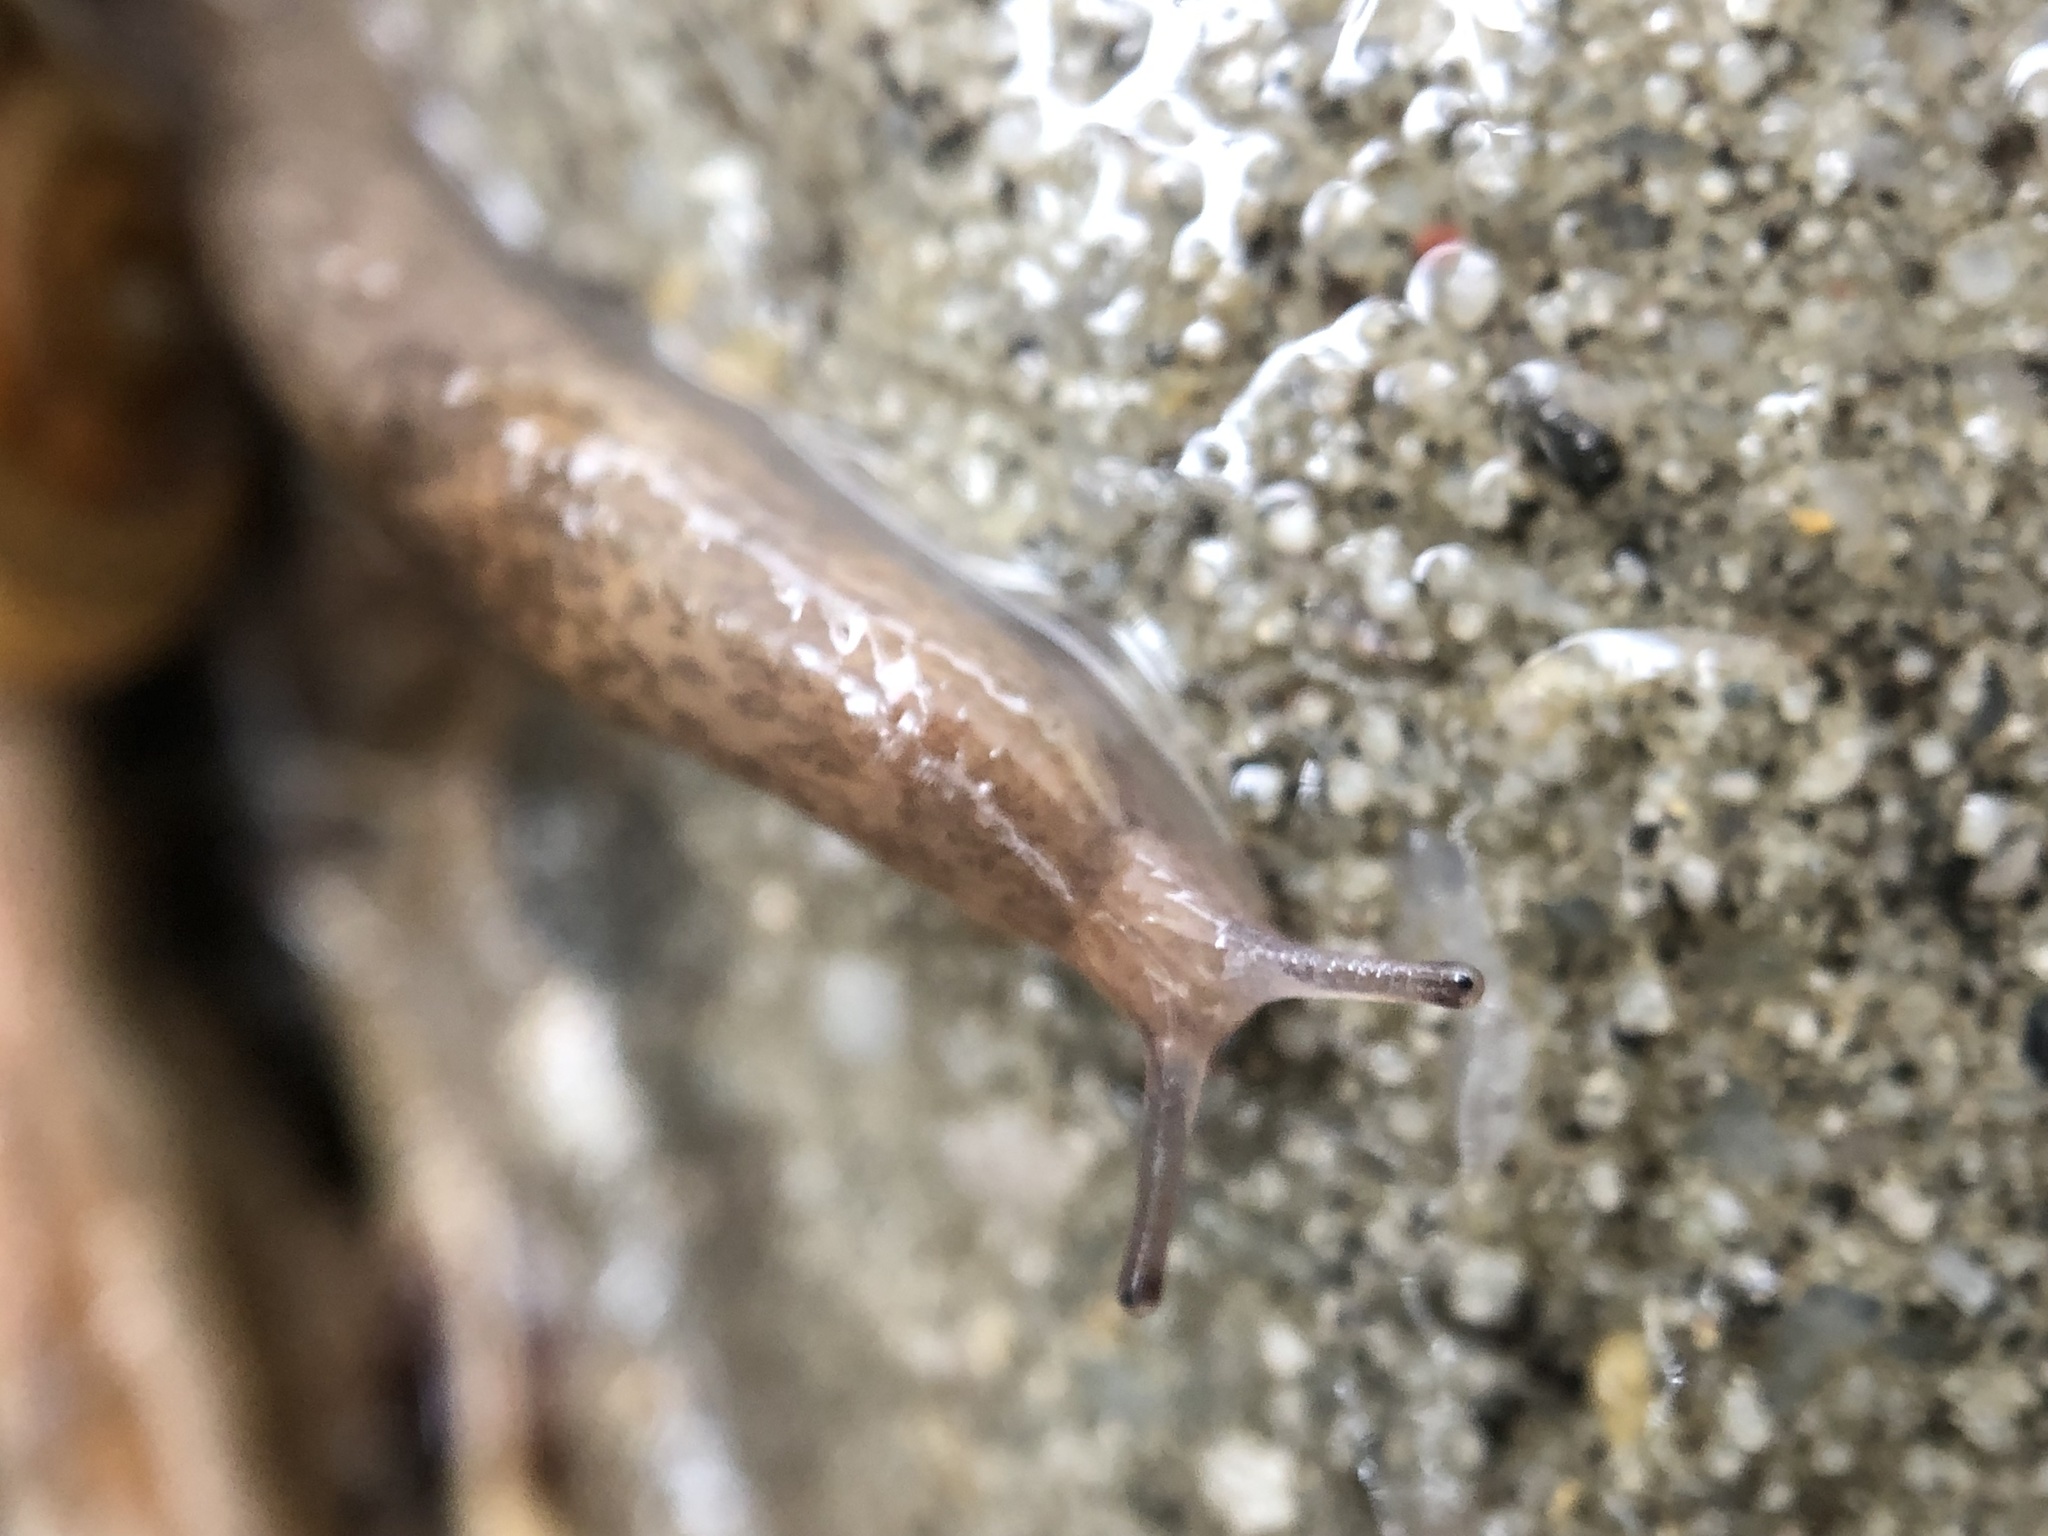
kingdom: Animalia
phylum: Mollusca
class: Gastropoda
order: Stylommatophora
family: Agriolimacidae
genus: Deroceras
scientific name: Deroceras laeve
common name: Marsh slug
